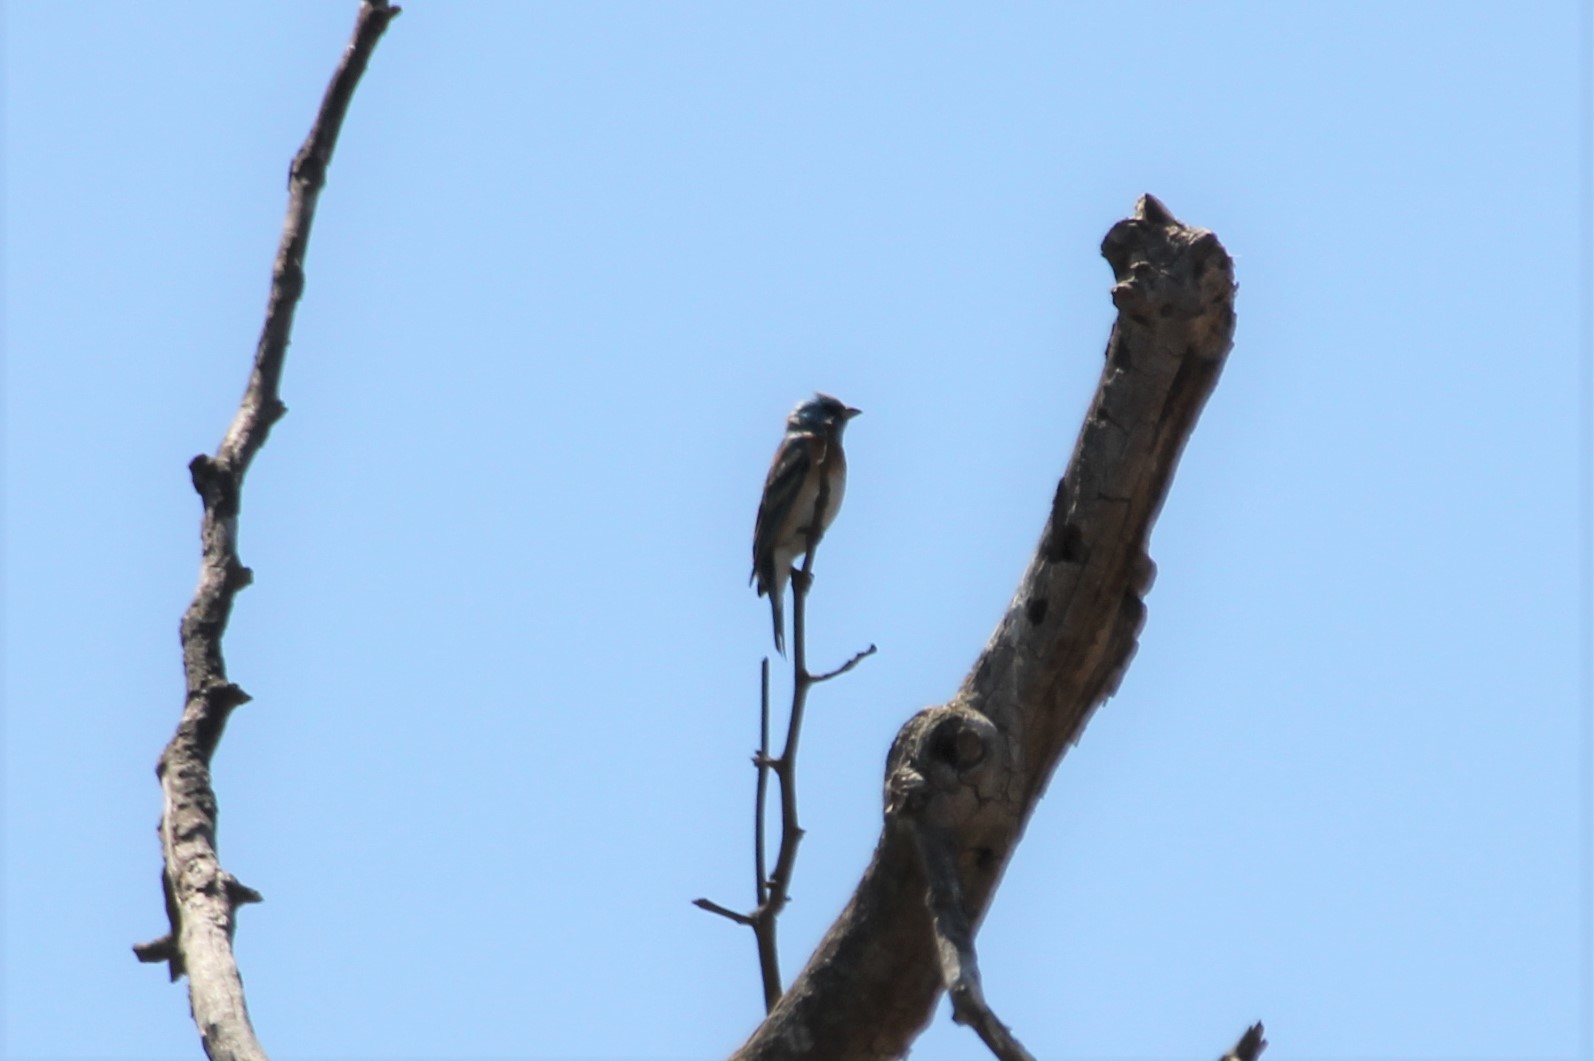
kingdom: Animalia
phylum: Chordata
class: Aves
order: Passeriformes
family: Cardinalidae
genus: Passerina
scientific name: Passerina amoena
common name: Lazuli bunting
